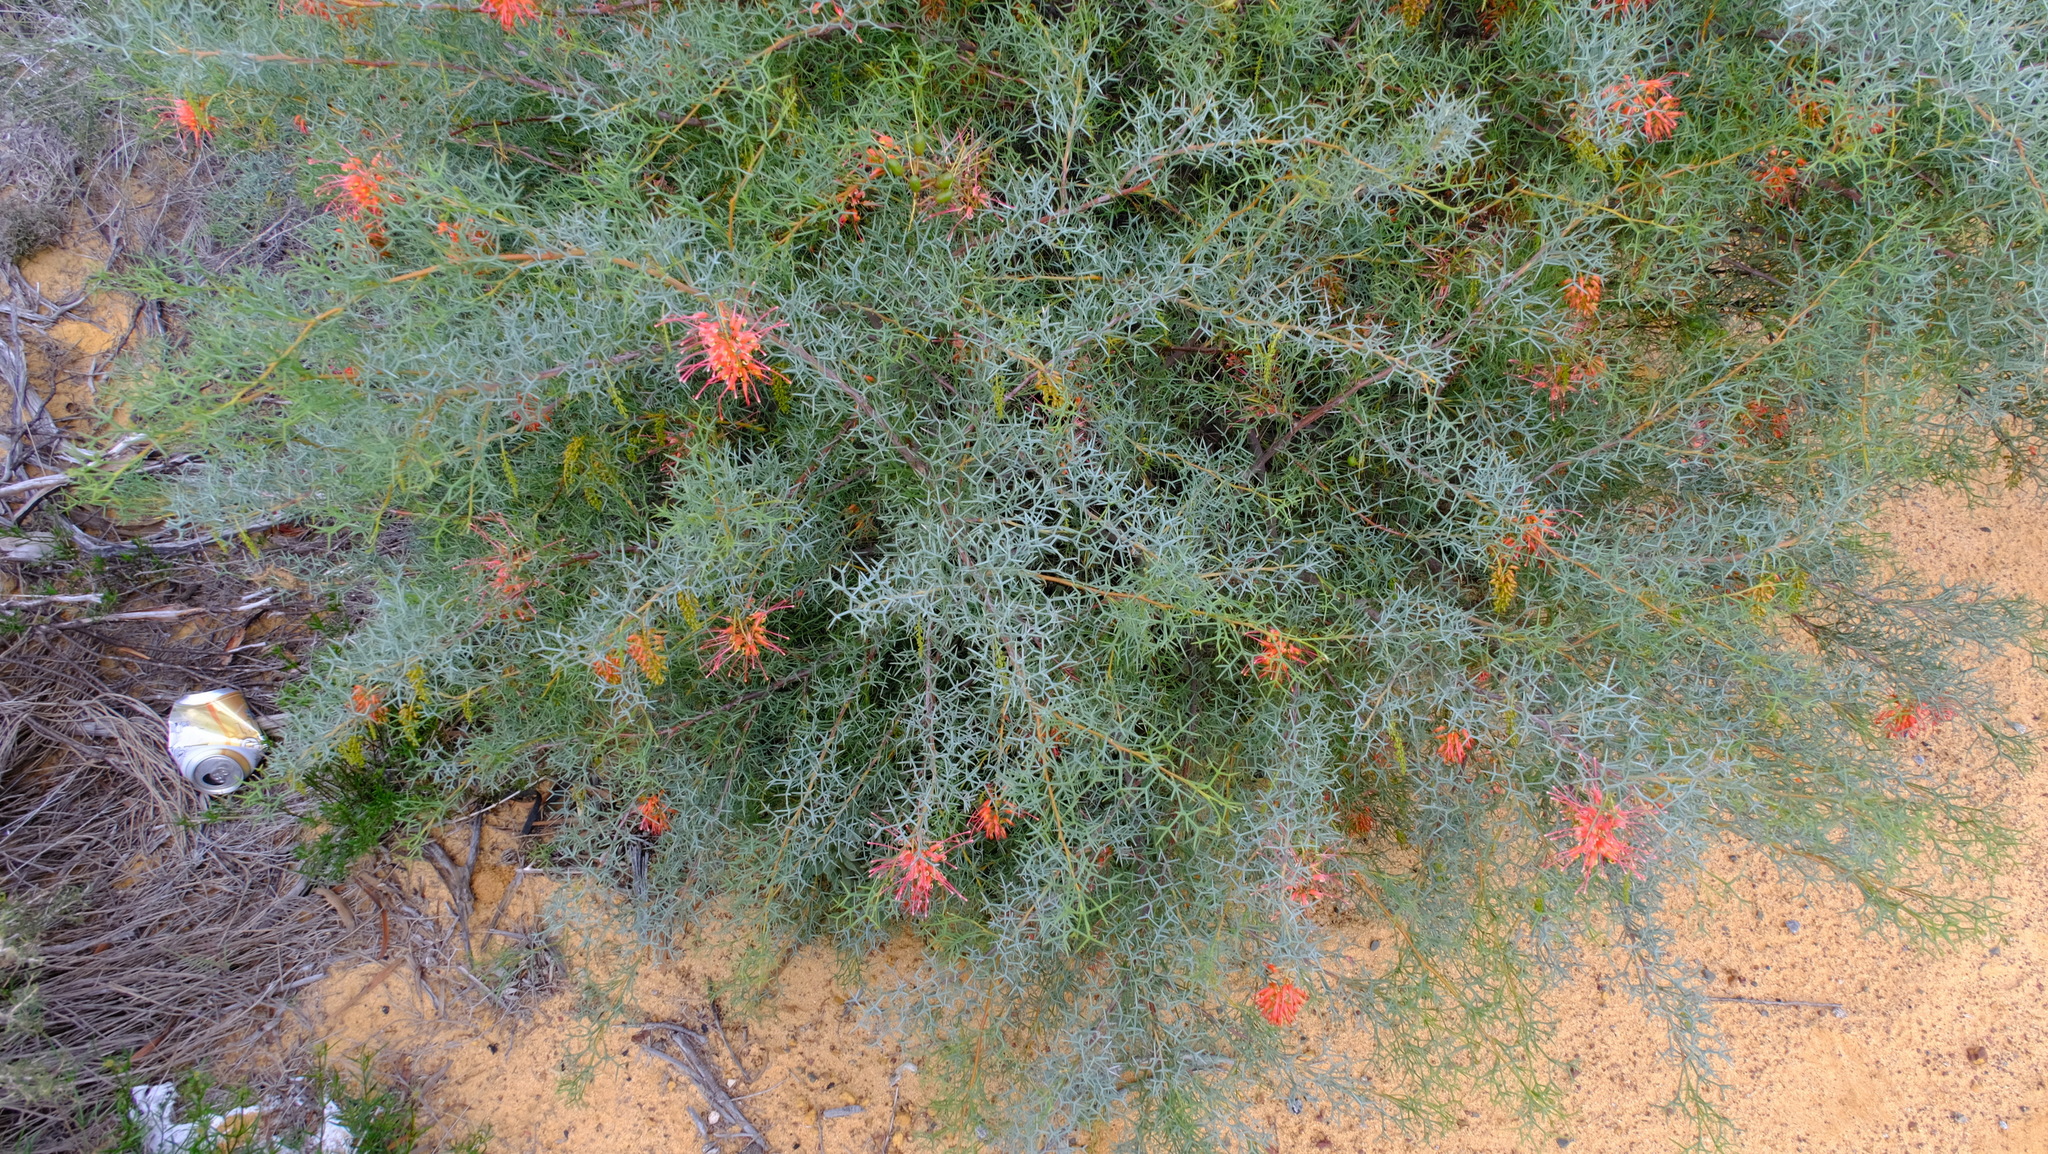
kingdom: Plantae
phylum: Tracheophyta
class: Magnoliopsida
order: Proteales
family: Proteaceae
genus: Grevillea
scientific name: Grevillea dielsiana
